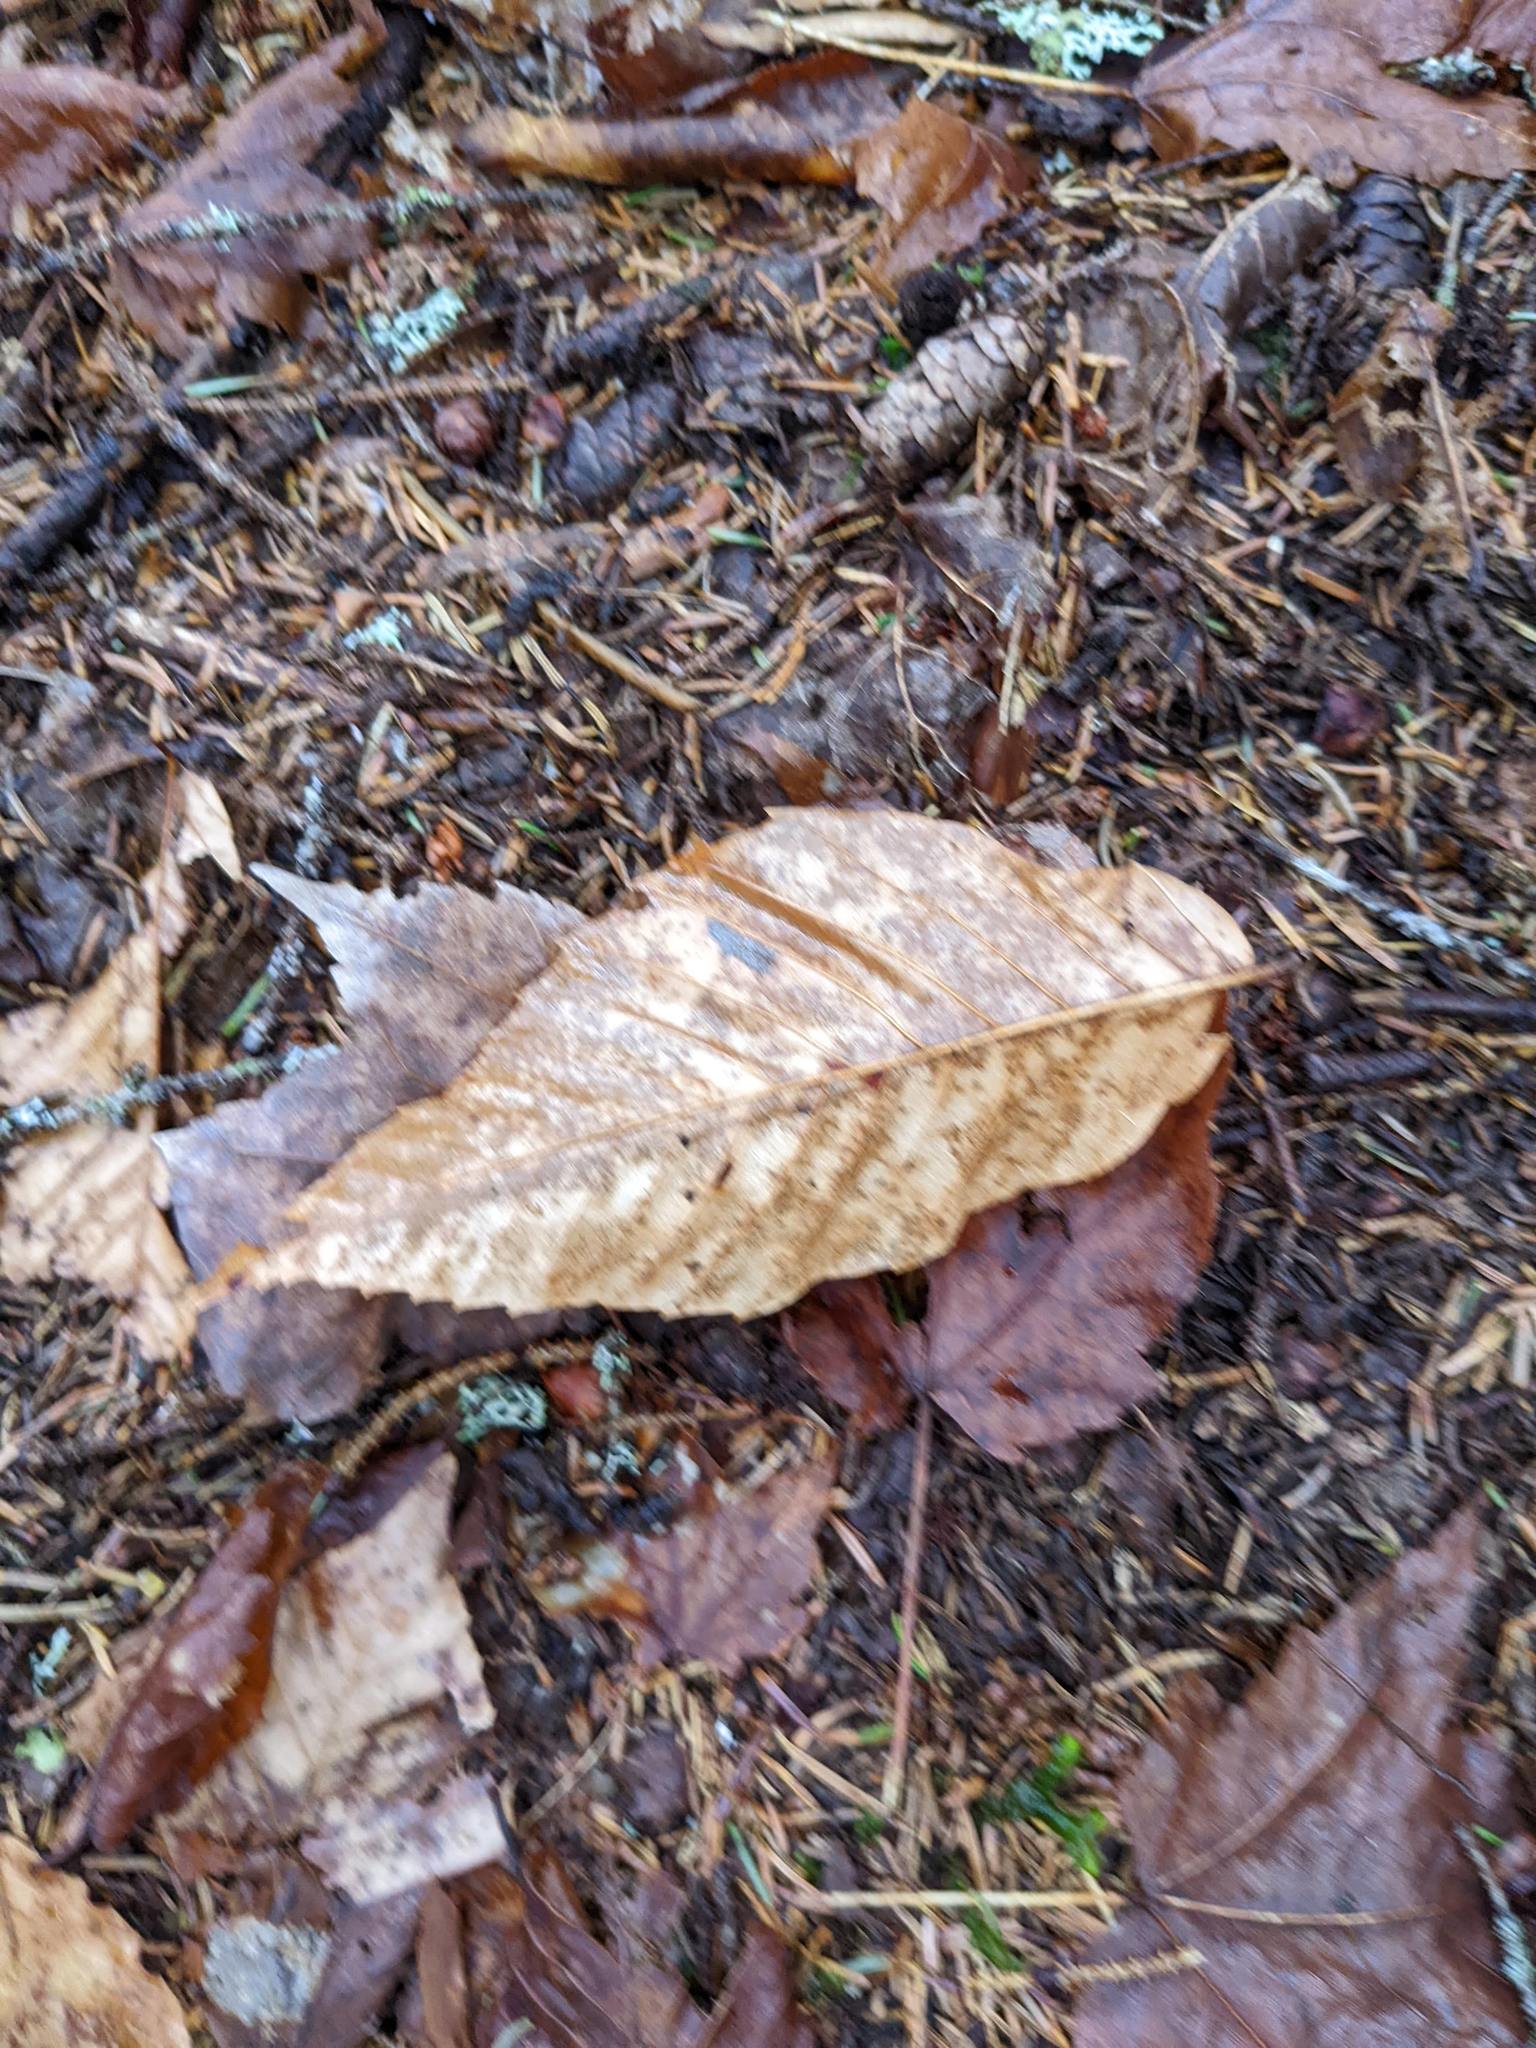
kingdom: Plantae
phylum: Tracheophyta
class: Magnoliopsida
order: Fagales
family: Fagaceae
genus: Fagus
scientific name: Fagus grandifolia
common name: American beech
